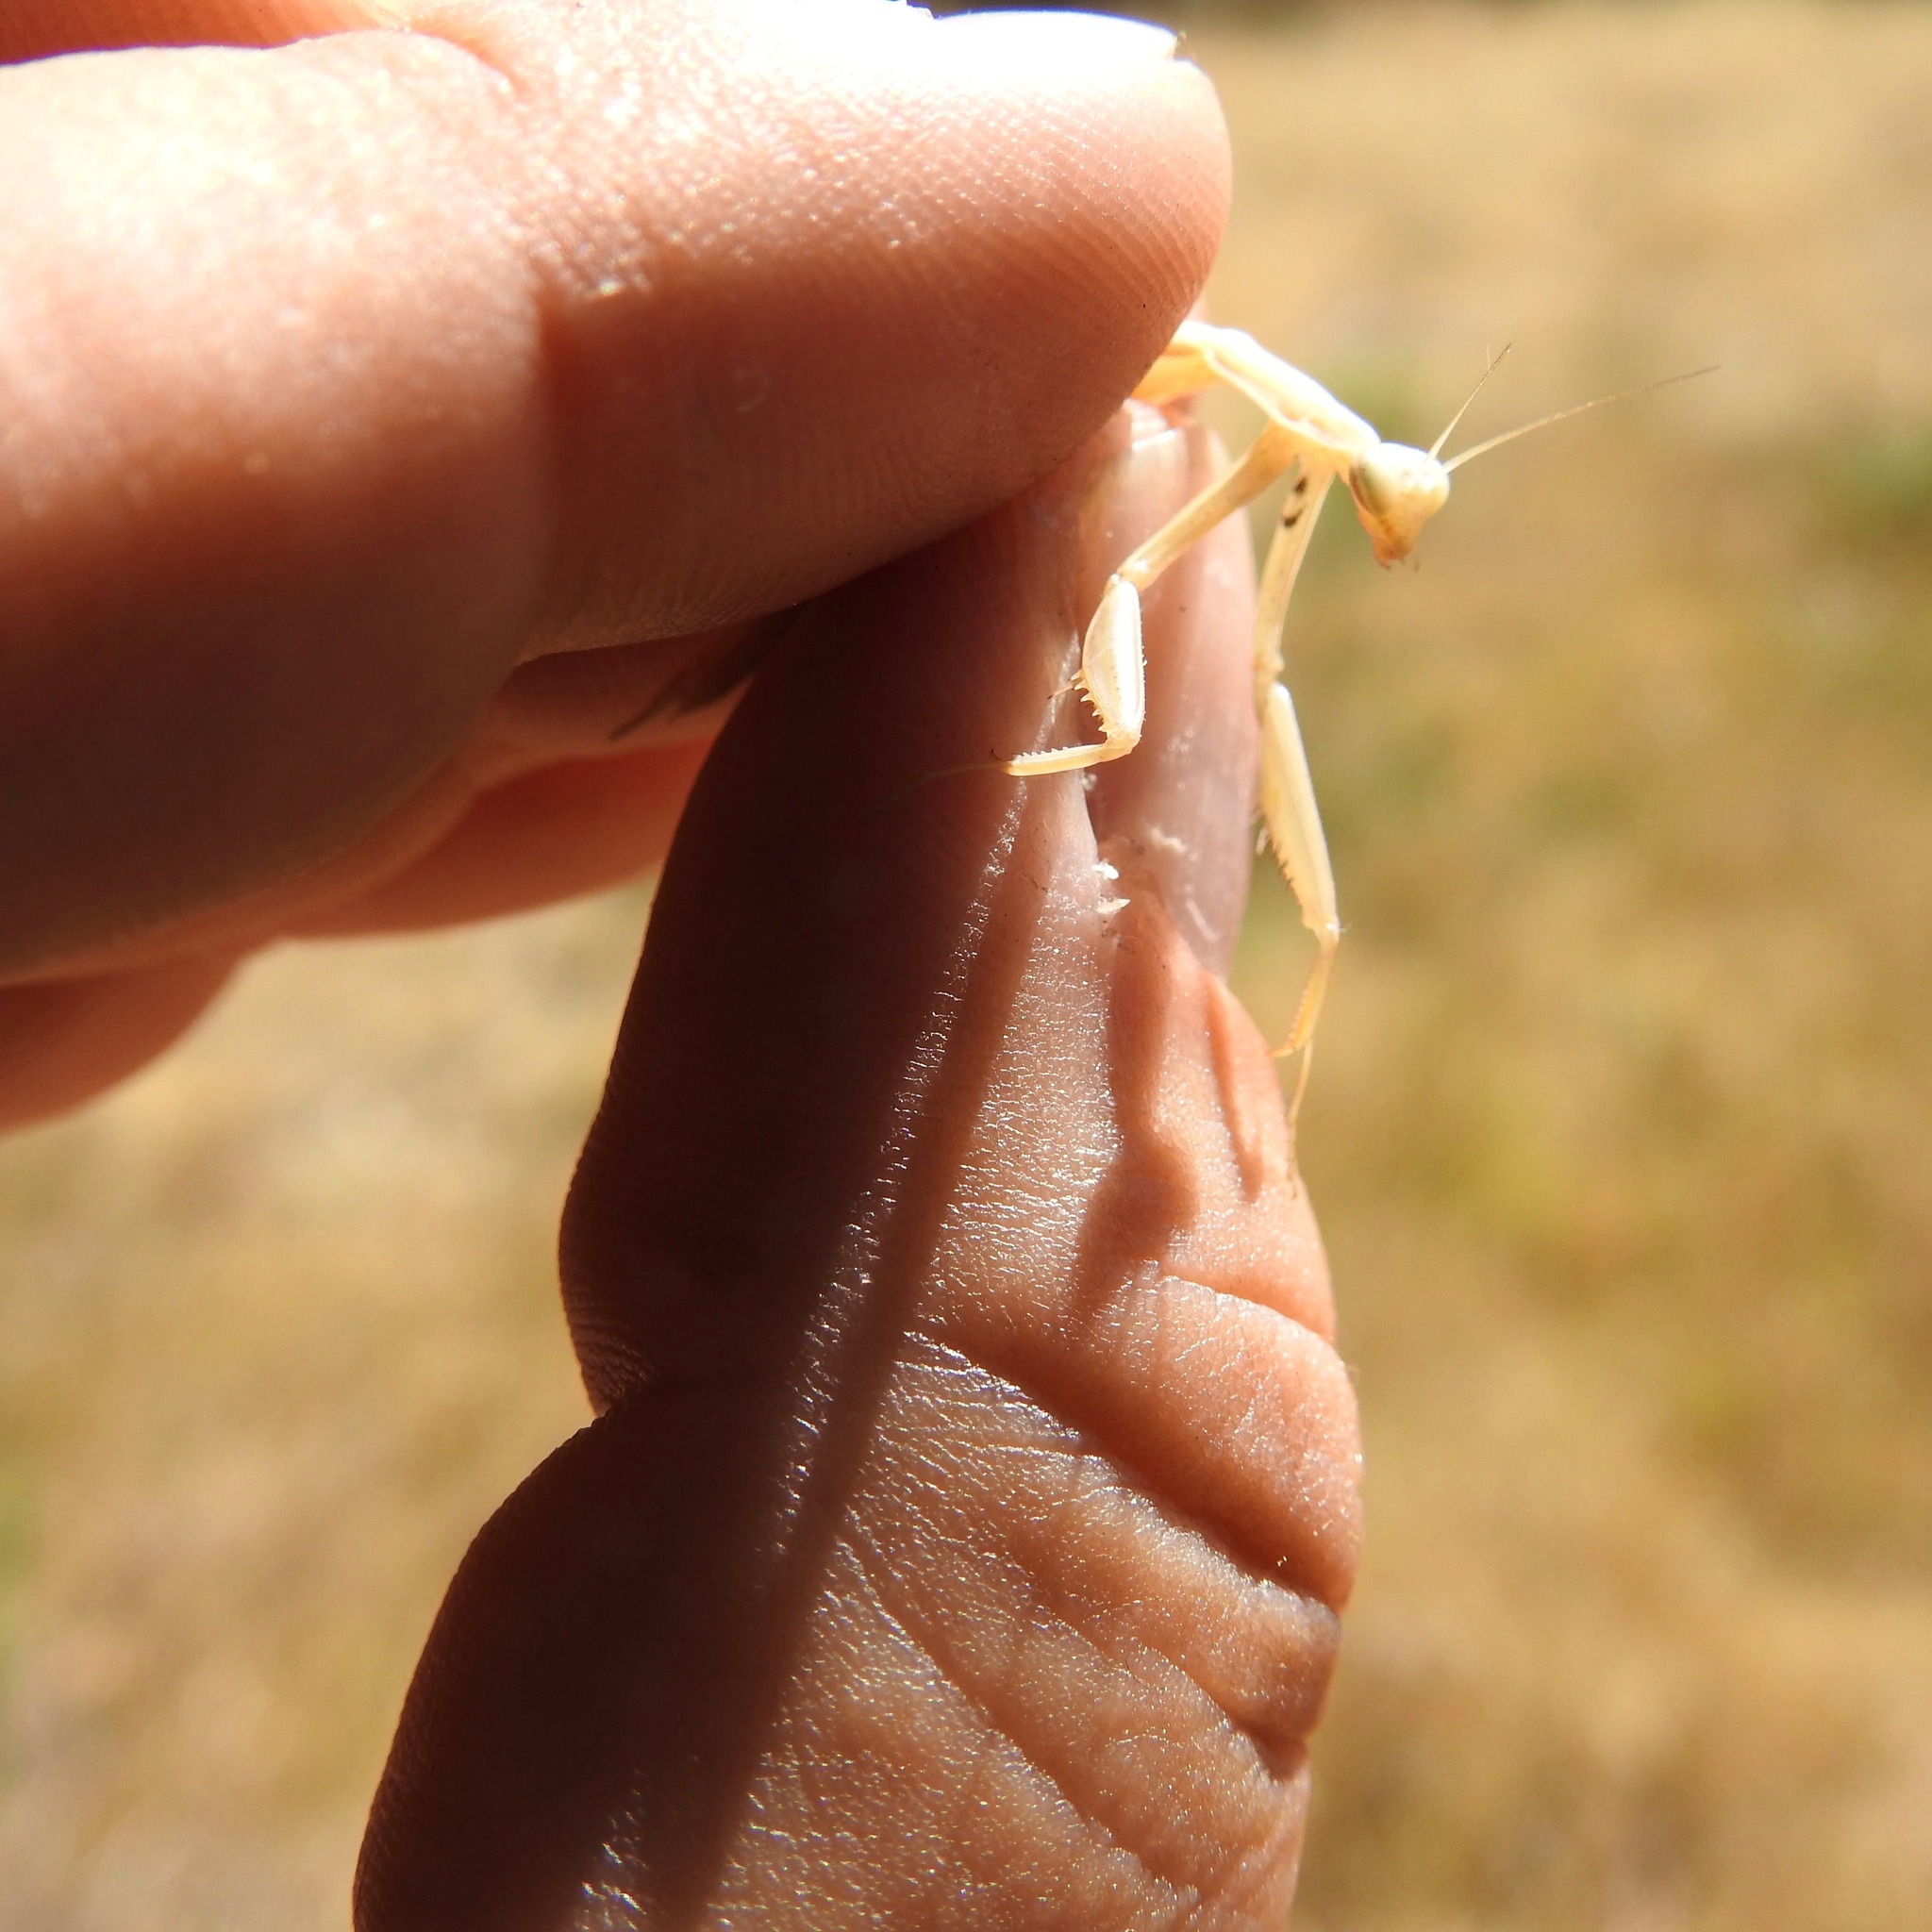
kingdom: Animalia
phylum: Arthropoda
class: Insecta
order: Mantodea
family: Mantidae
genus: Mantis
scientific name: Mantis religiosa
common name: Praying mantis
